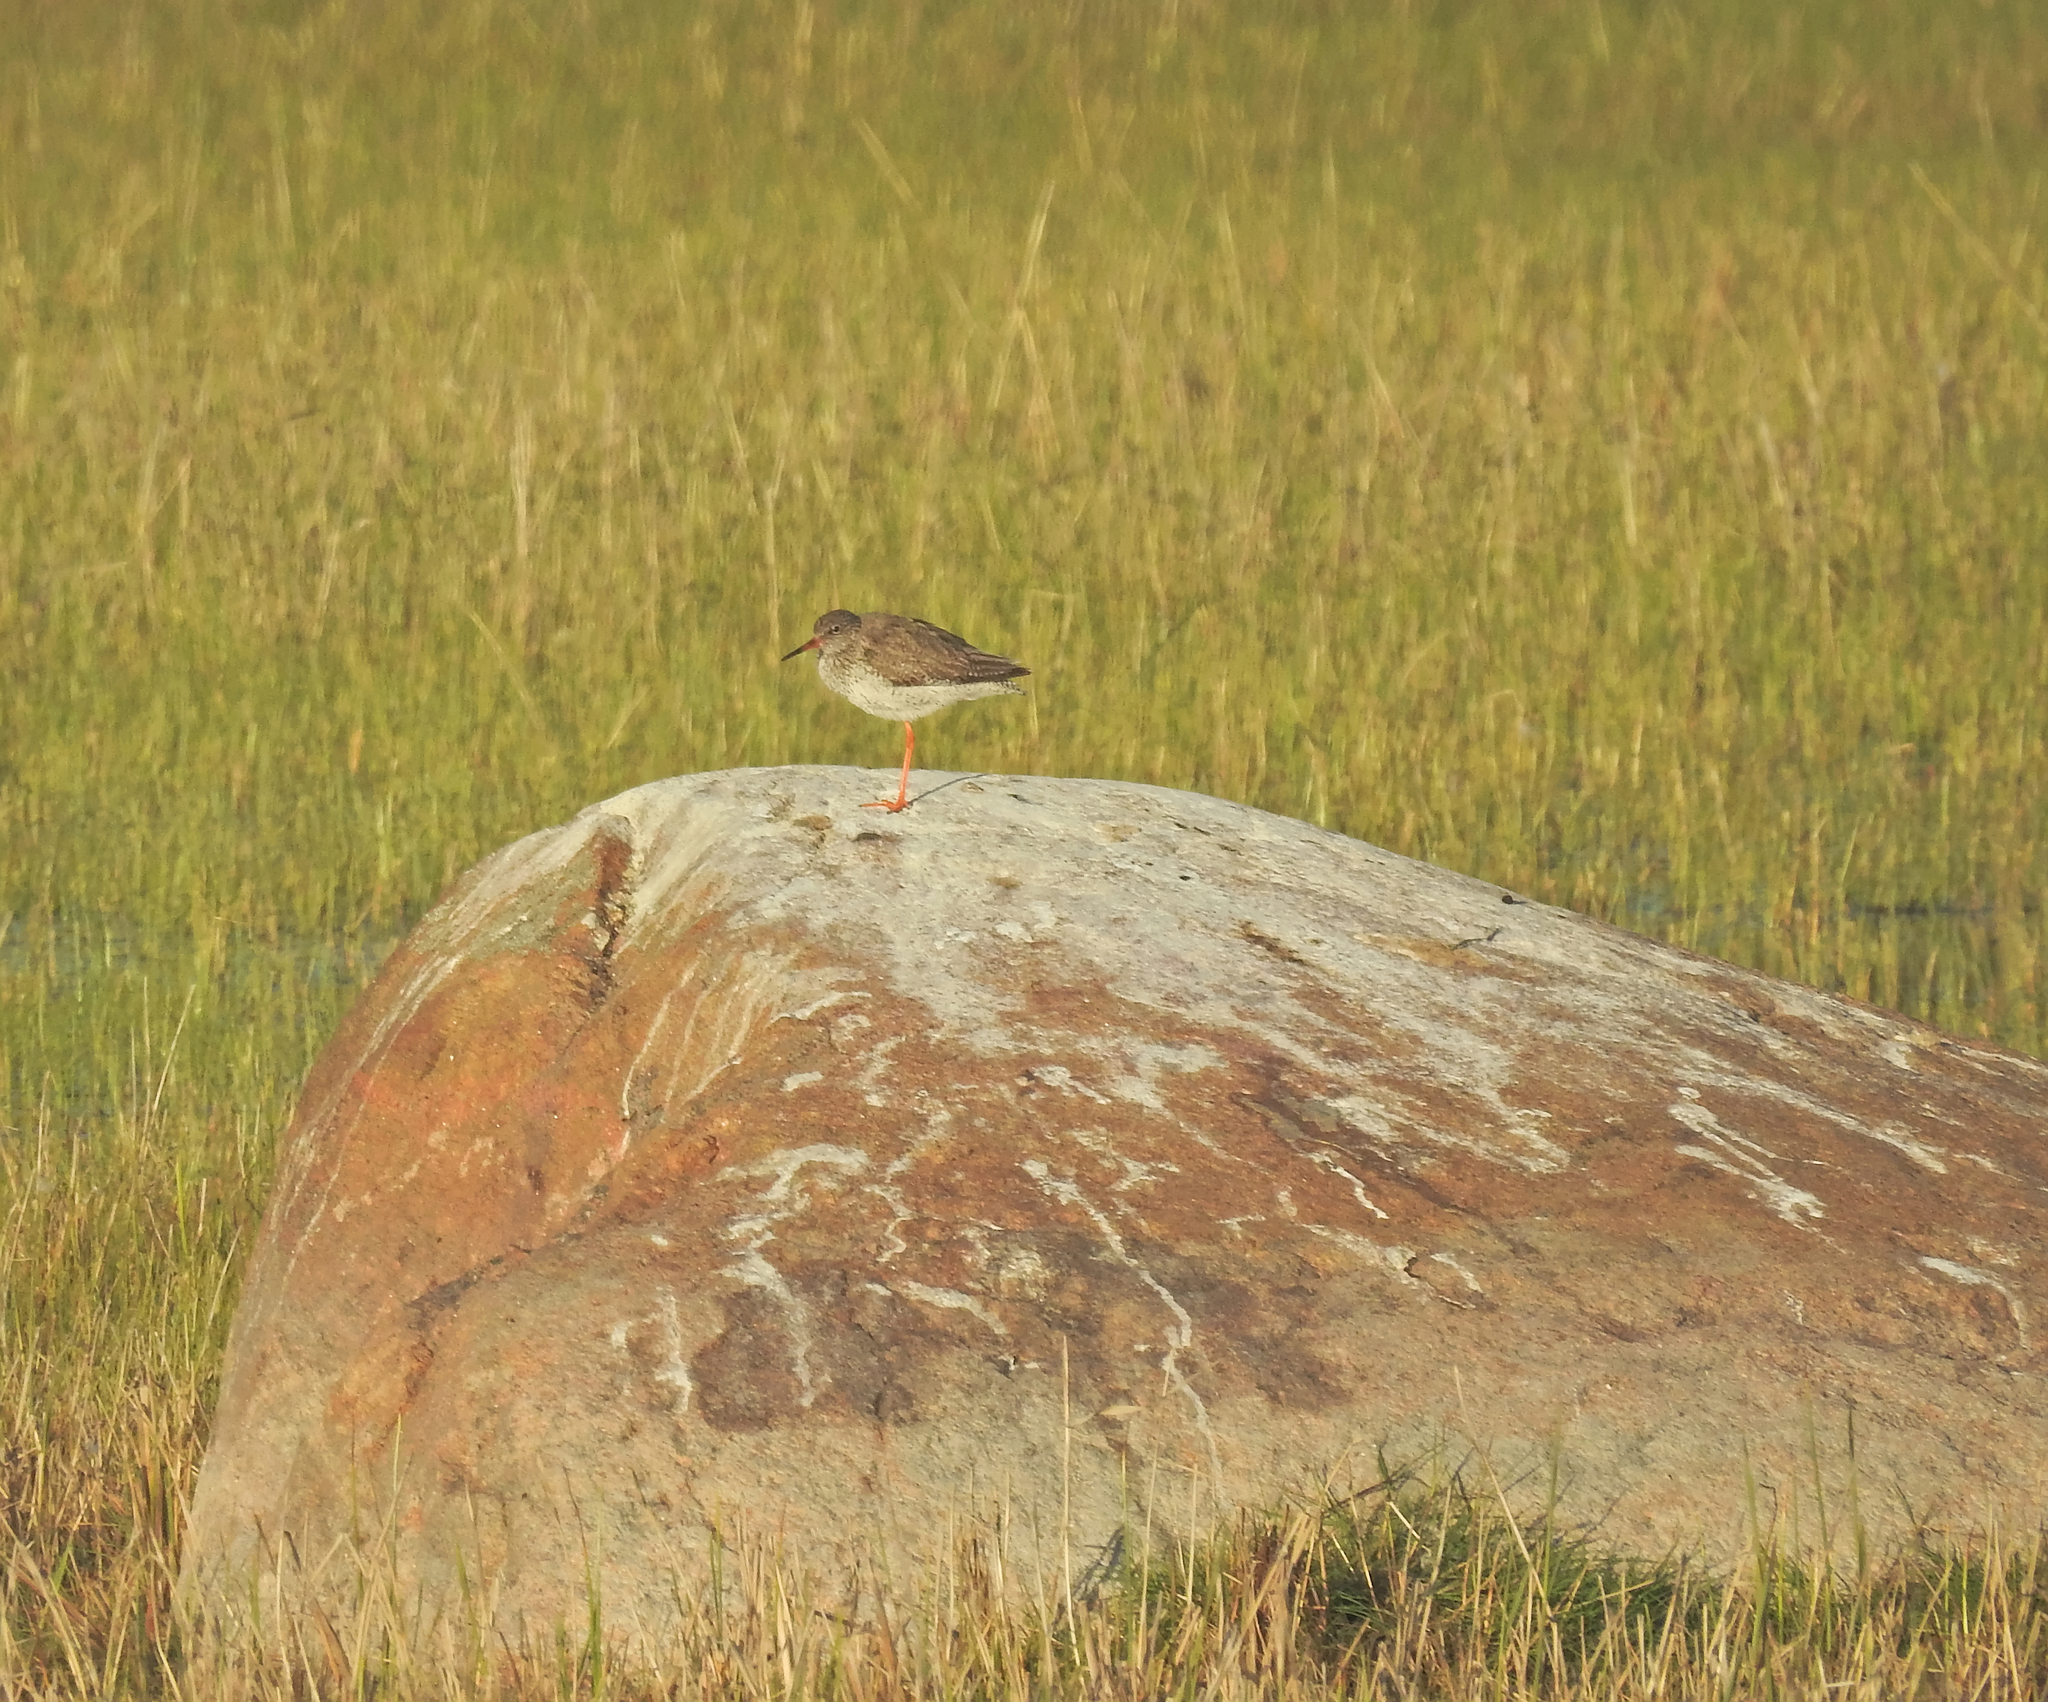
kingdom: Animalia
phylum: Chordata
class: Aves
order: Charadriiformes
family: Scolopacidae
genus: Tringa
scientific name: Tringa totanus
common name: Common redshank
